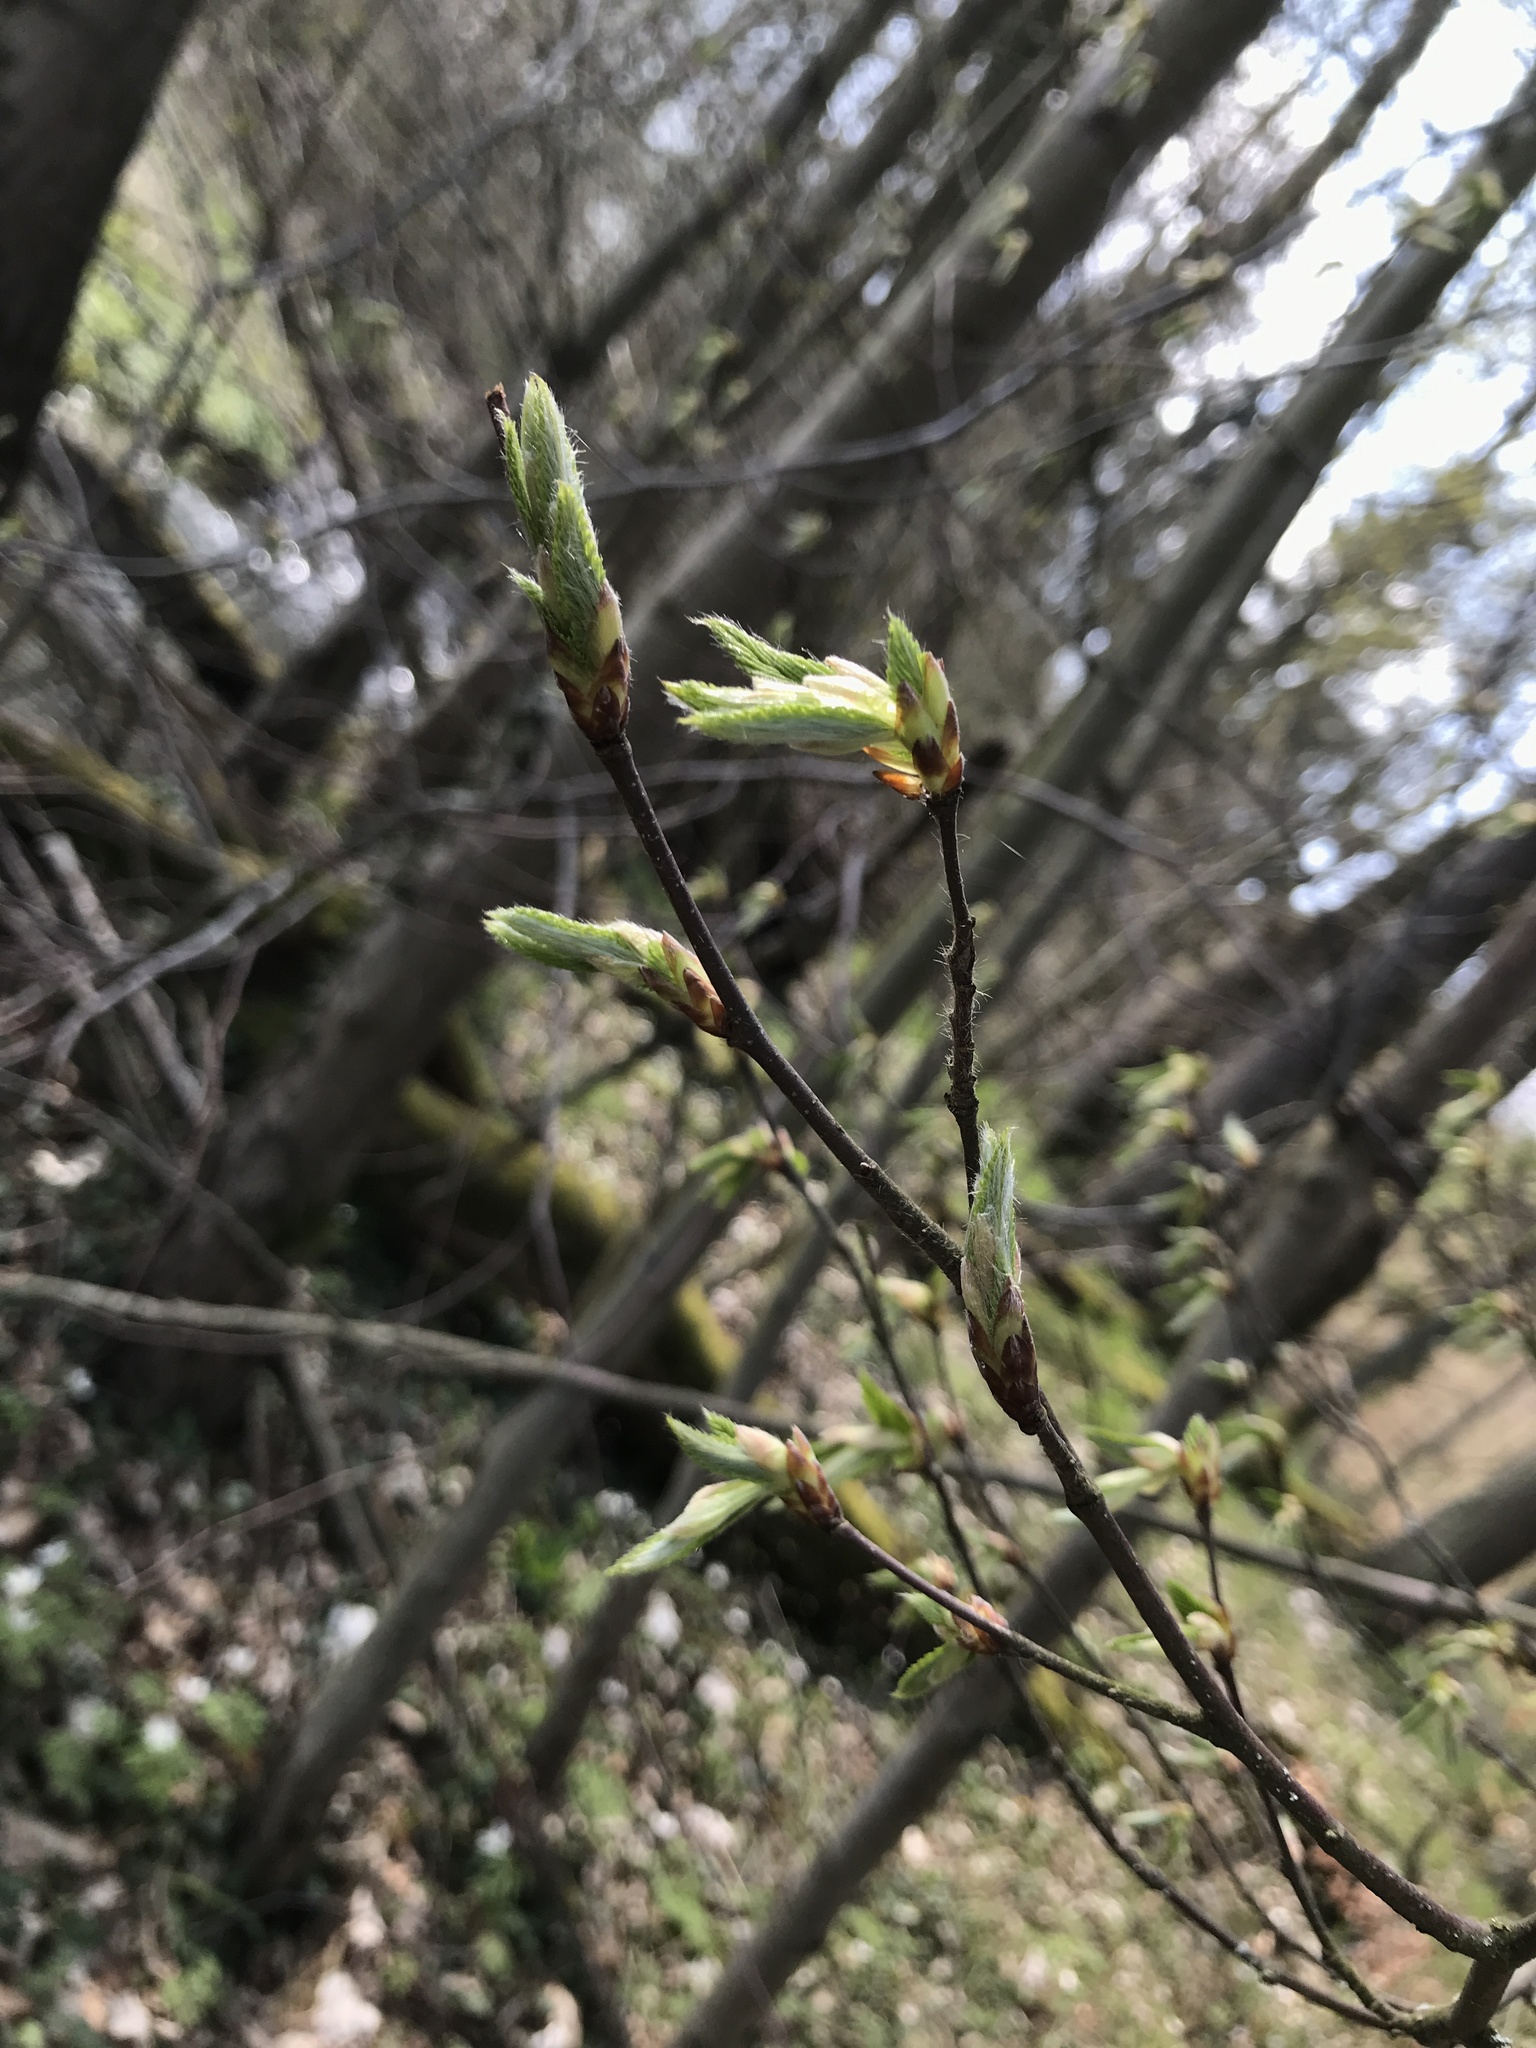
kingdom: Plantae
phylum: Tracheophyta
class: Magnoliopsida
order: Fagales
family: Betulaceae
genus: Carpinus
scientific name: Carpinus betulus
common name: Hornbeam
